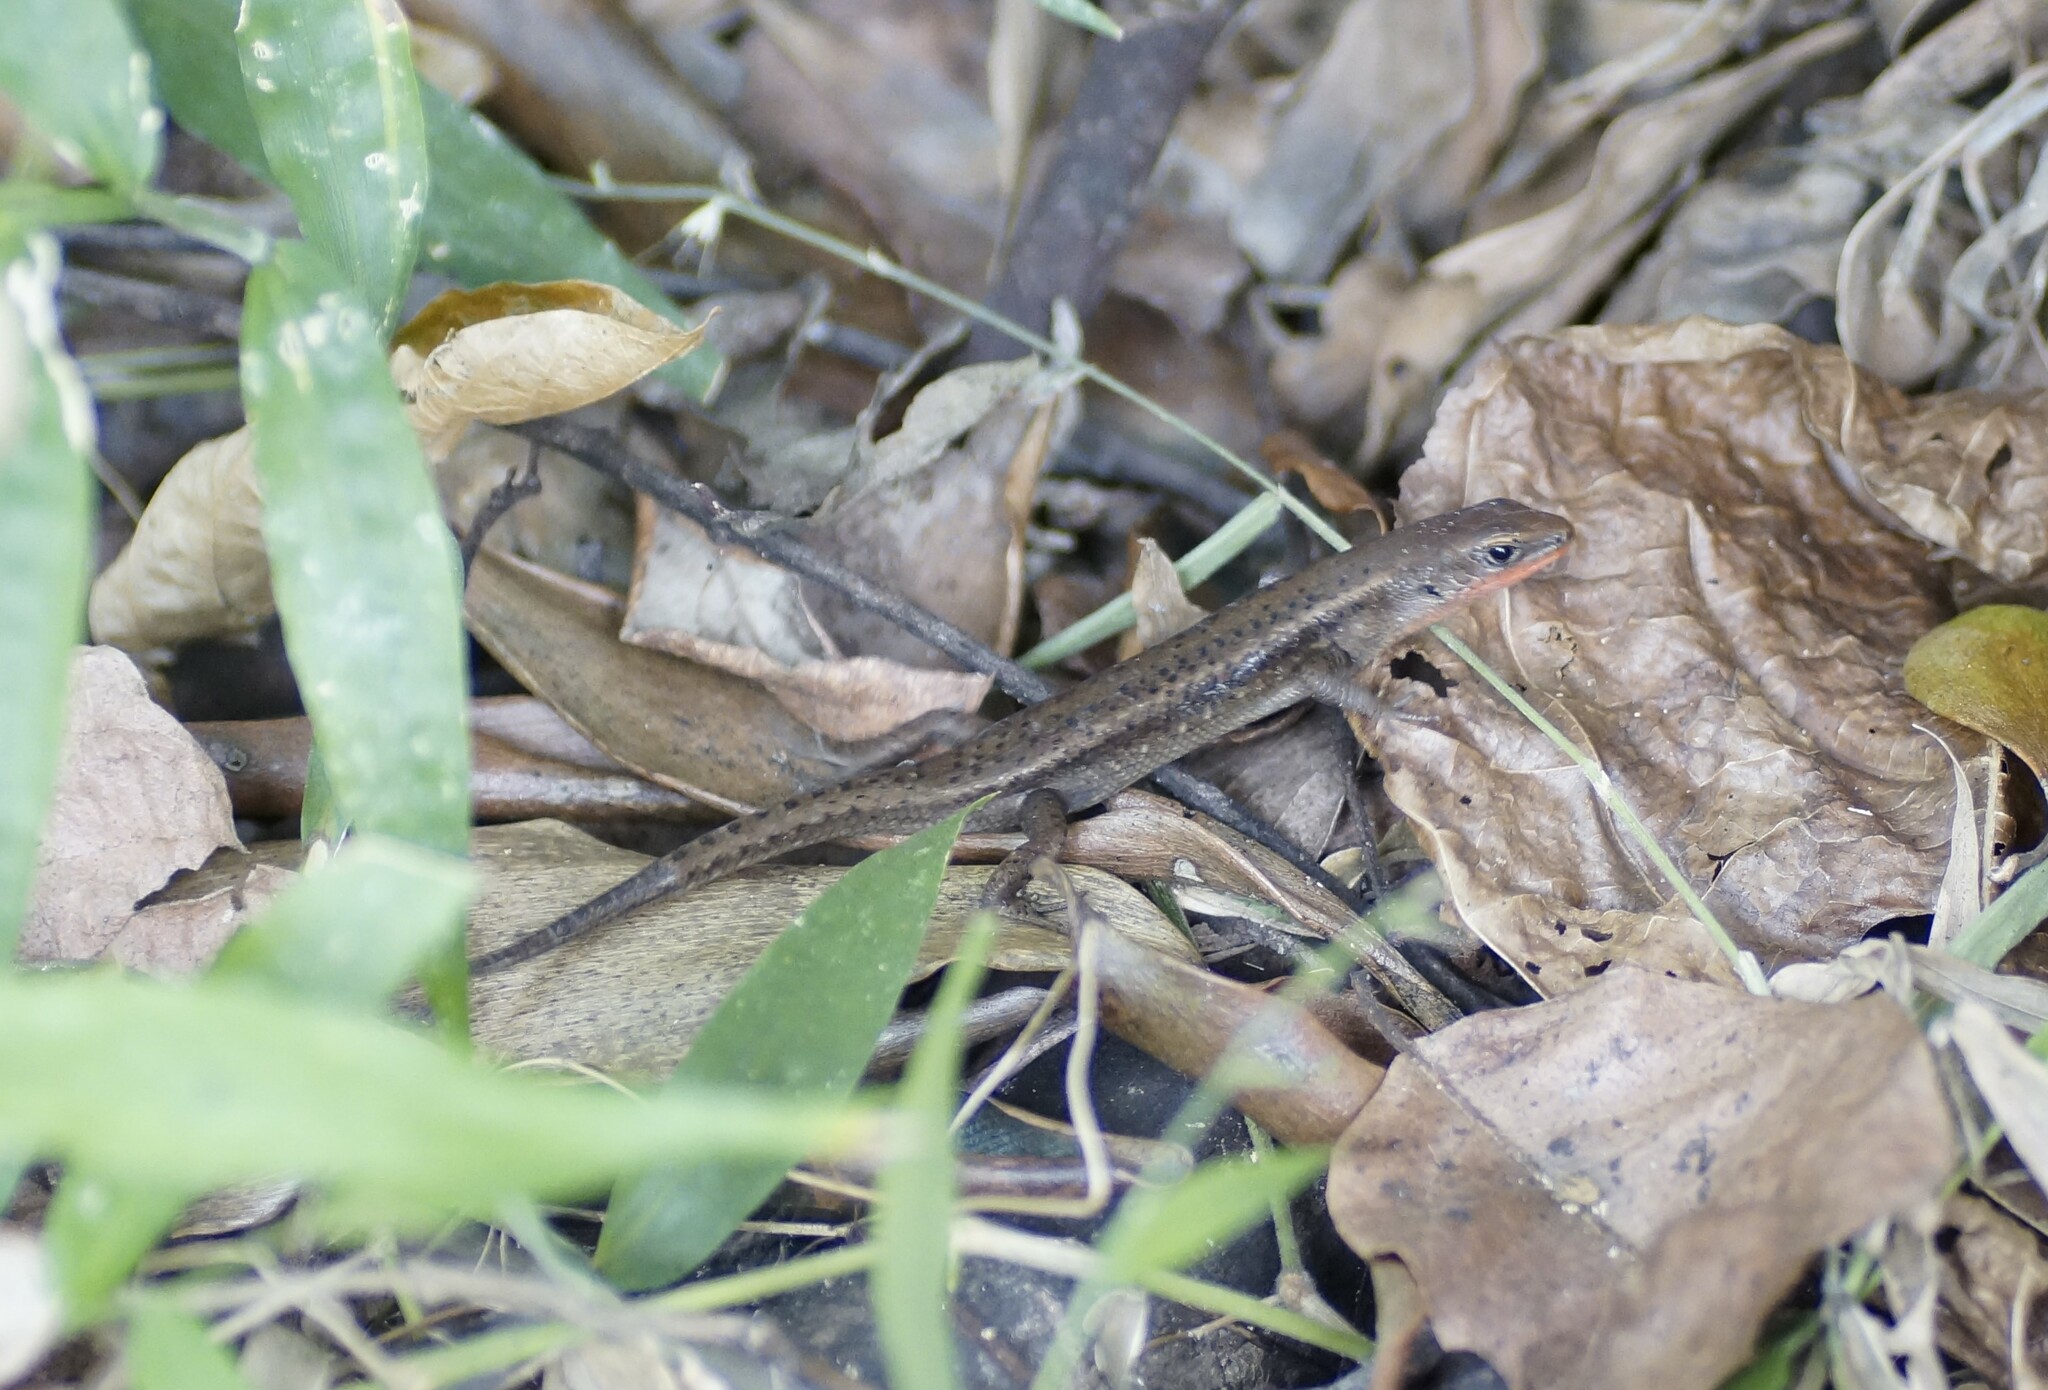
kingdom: Animalia
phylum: Chordata
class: Squamata
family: Scincidae
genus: Carlia
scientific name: Carlia crypta
